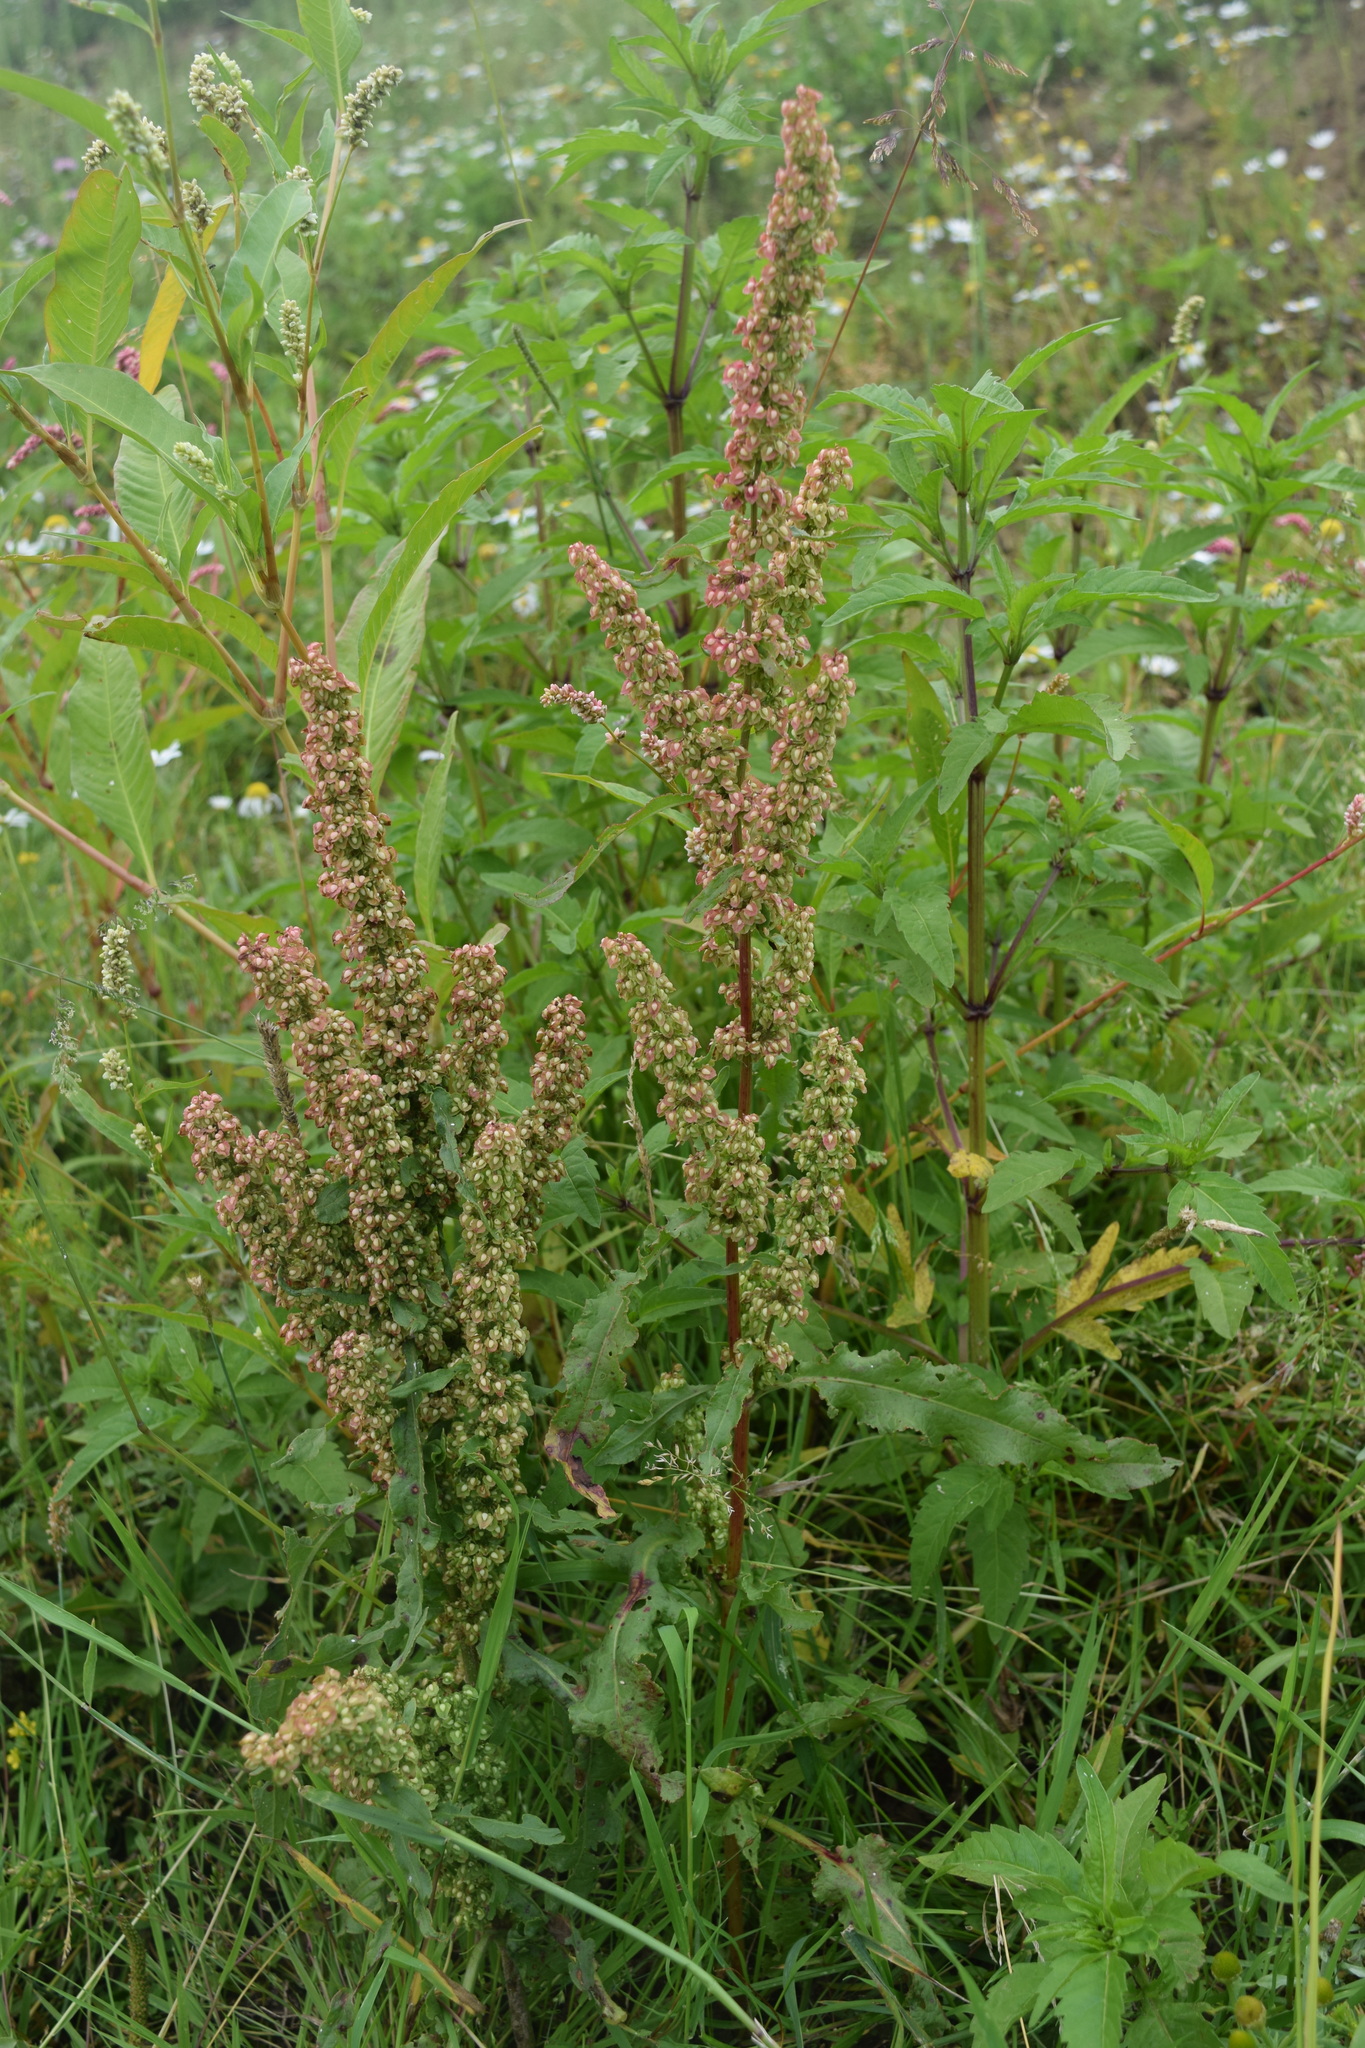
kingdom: Plantae
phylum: Tracheophyta
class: Magnoliopsida
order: Caryophyllales
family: Polygonaceae
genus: Rumex
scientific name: Rumex crispus
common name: Curled dock
